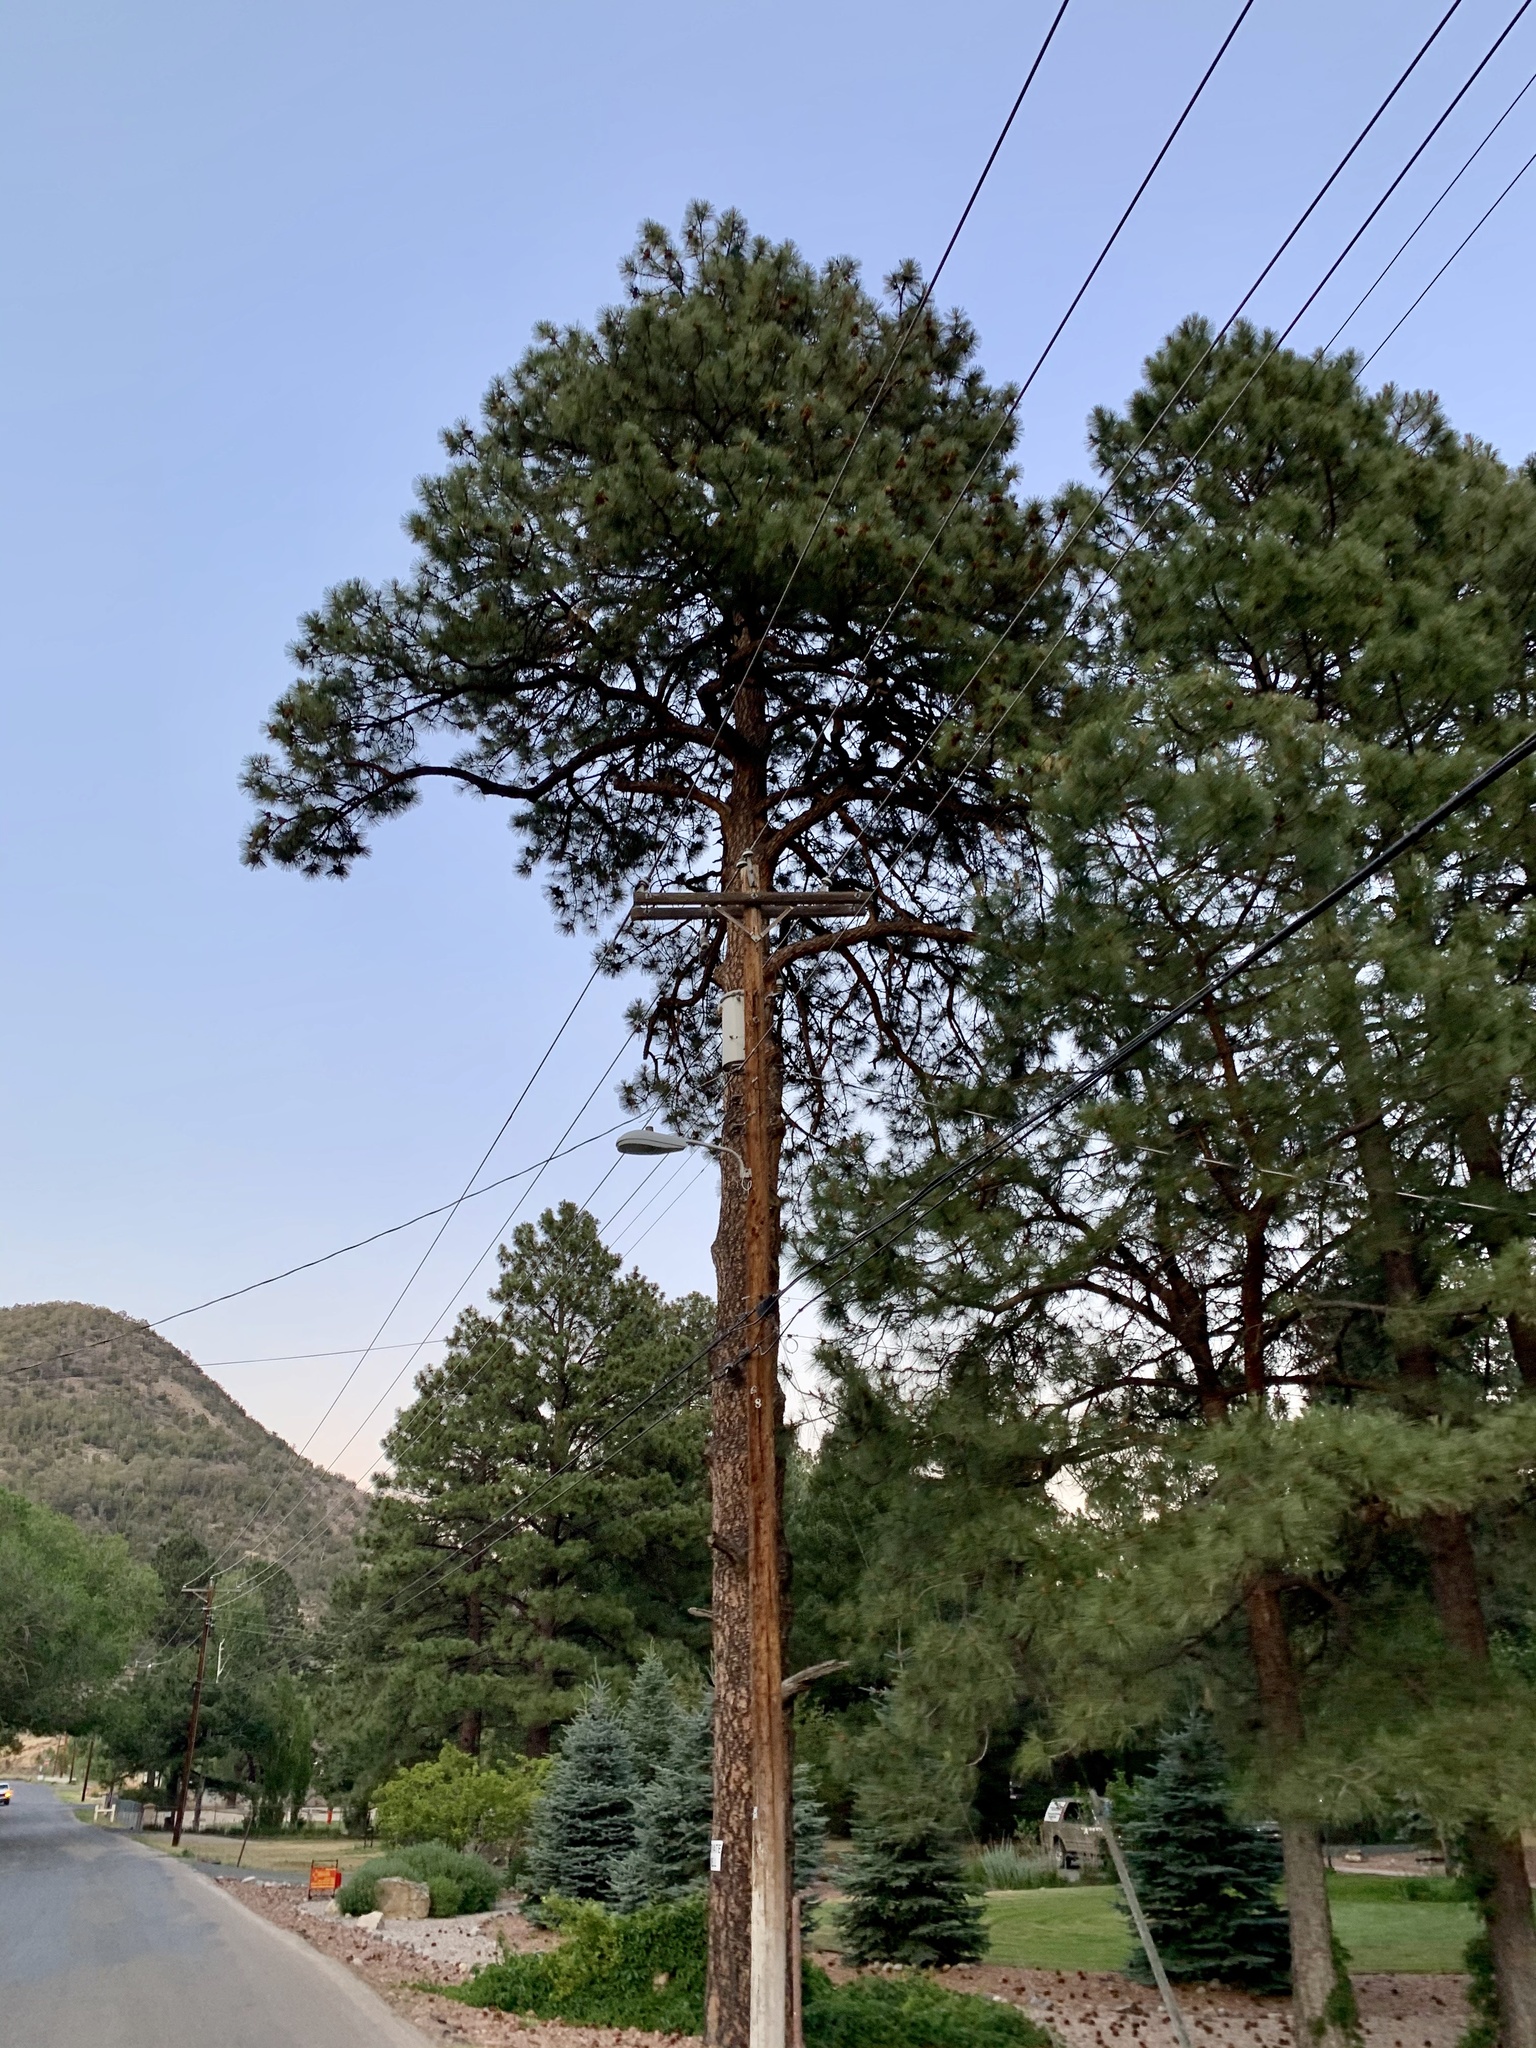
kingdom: Plantae
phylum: Tracheophyta
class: Pinopsida
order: Pinales
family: Pinaceae
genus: Pinus
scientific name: Pinus ponderosa
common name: Western yellow-pine
